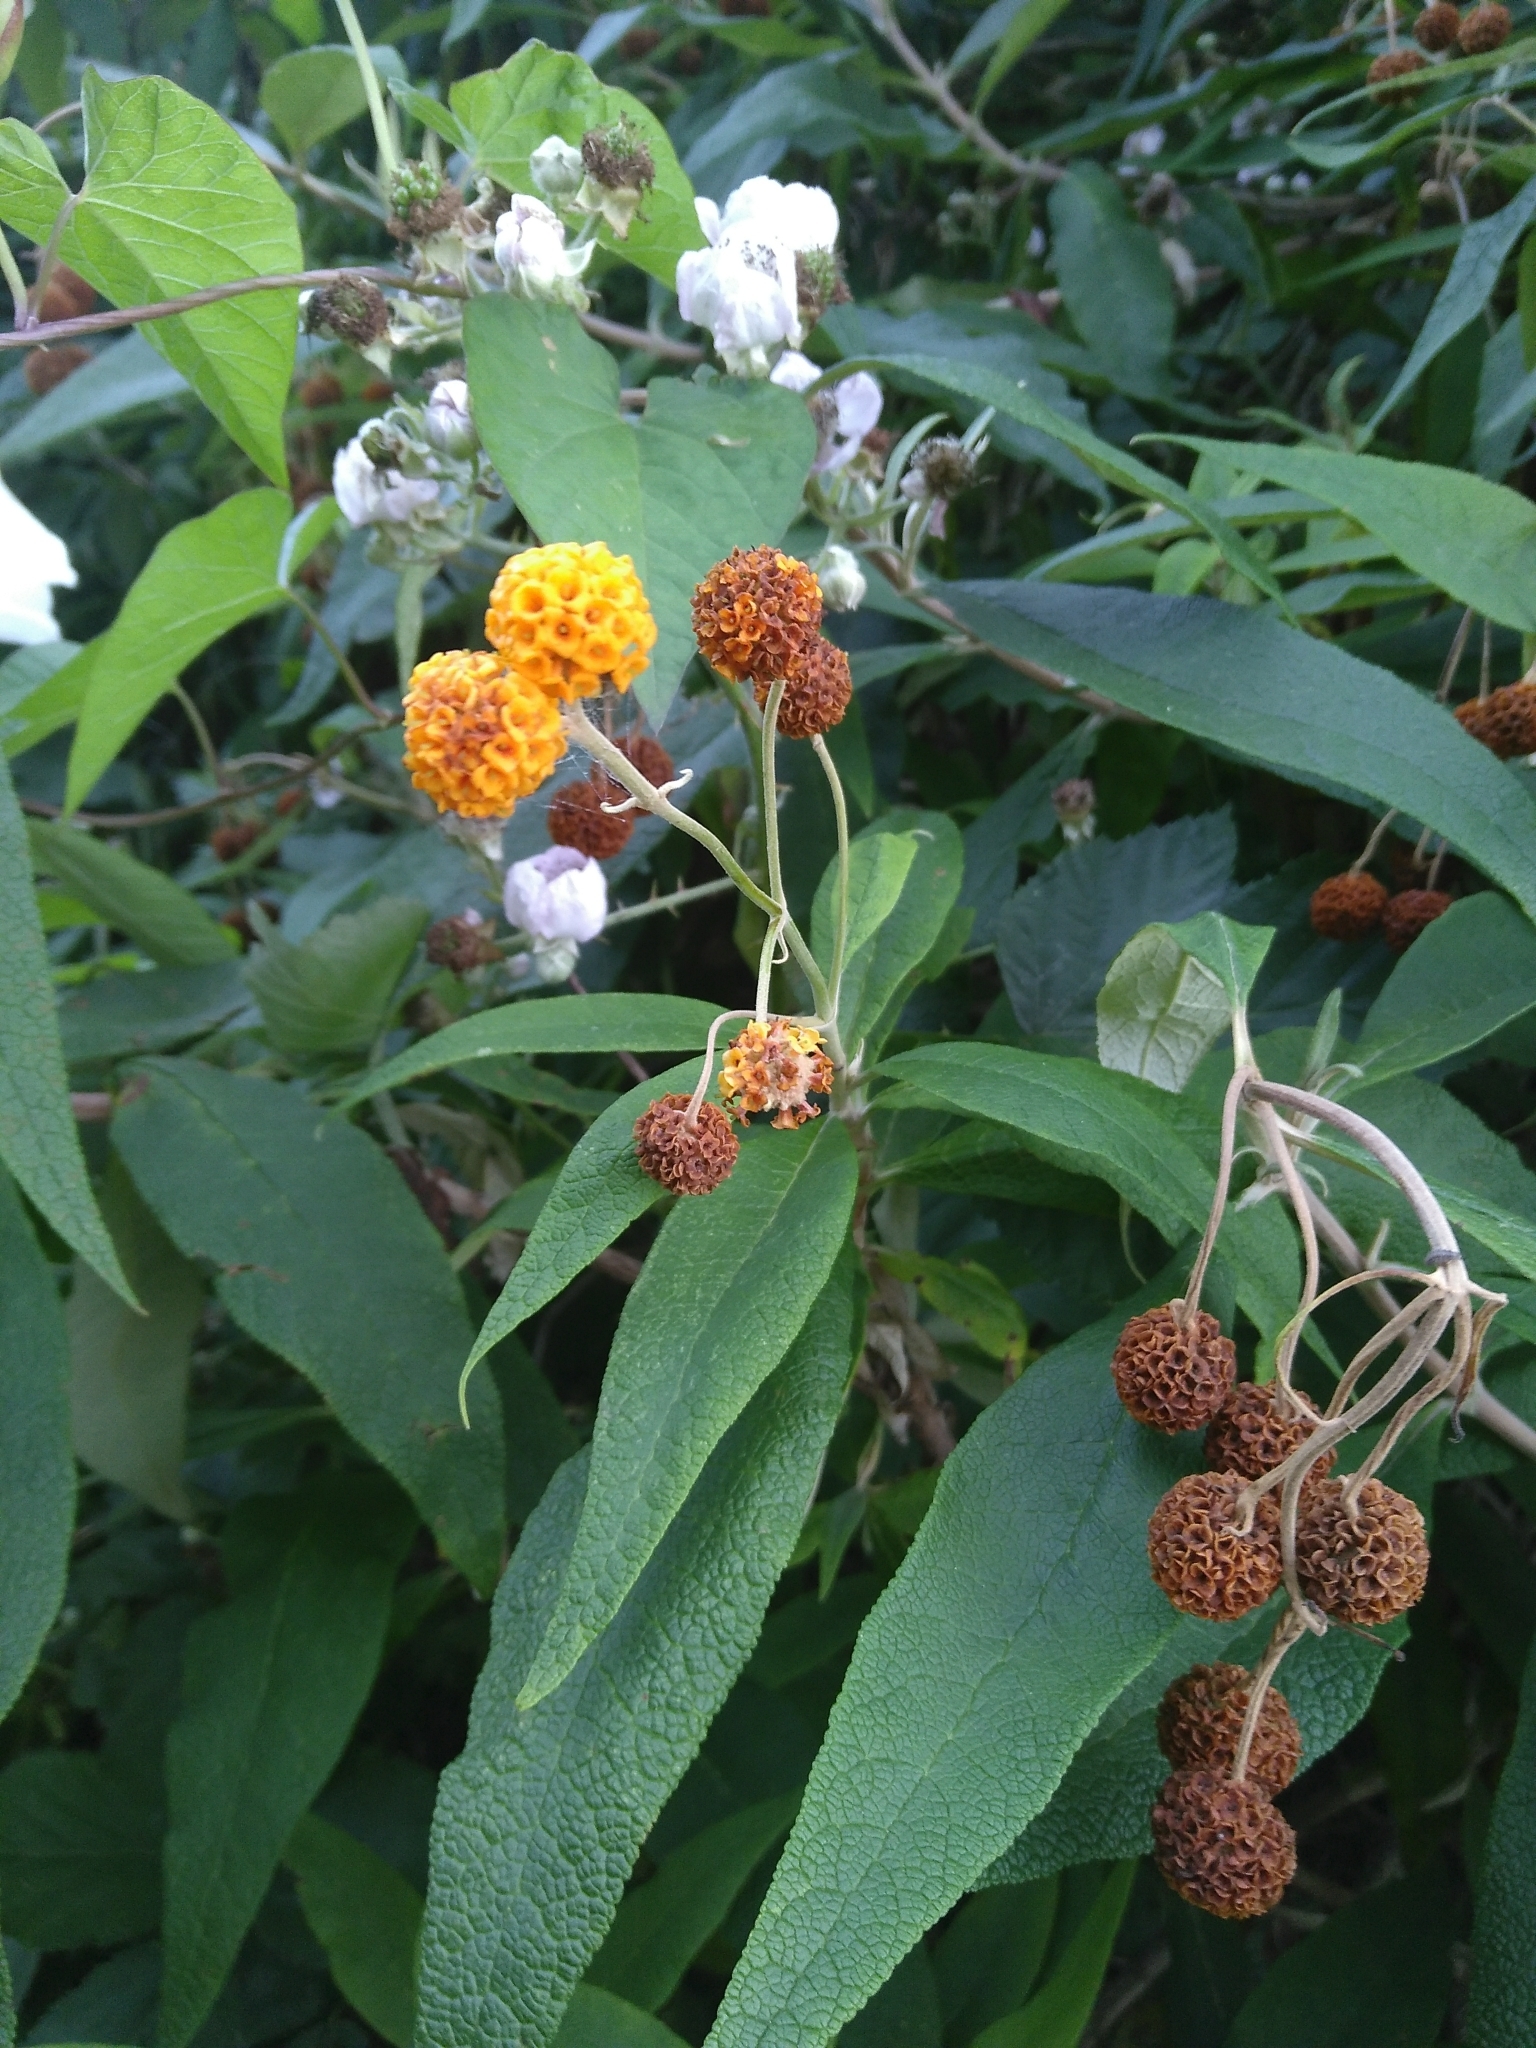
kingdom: Plantae
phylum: Tracheophyta
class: Magnoliopsida
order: Lamiales
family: Scrophulariaceae
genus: Buddleja
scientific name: Buddleja globosa
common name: Orange-ball-tree
